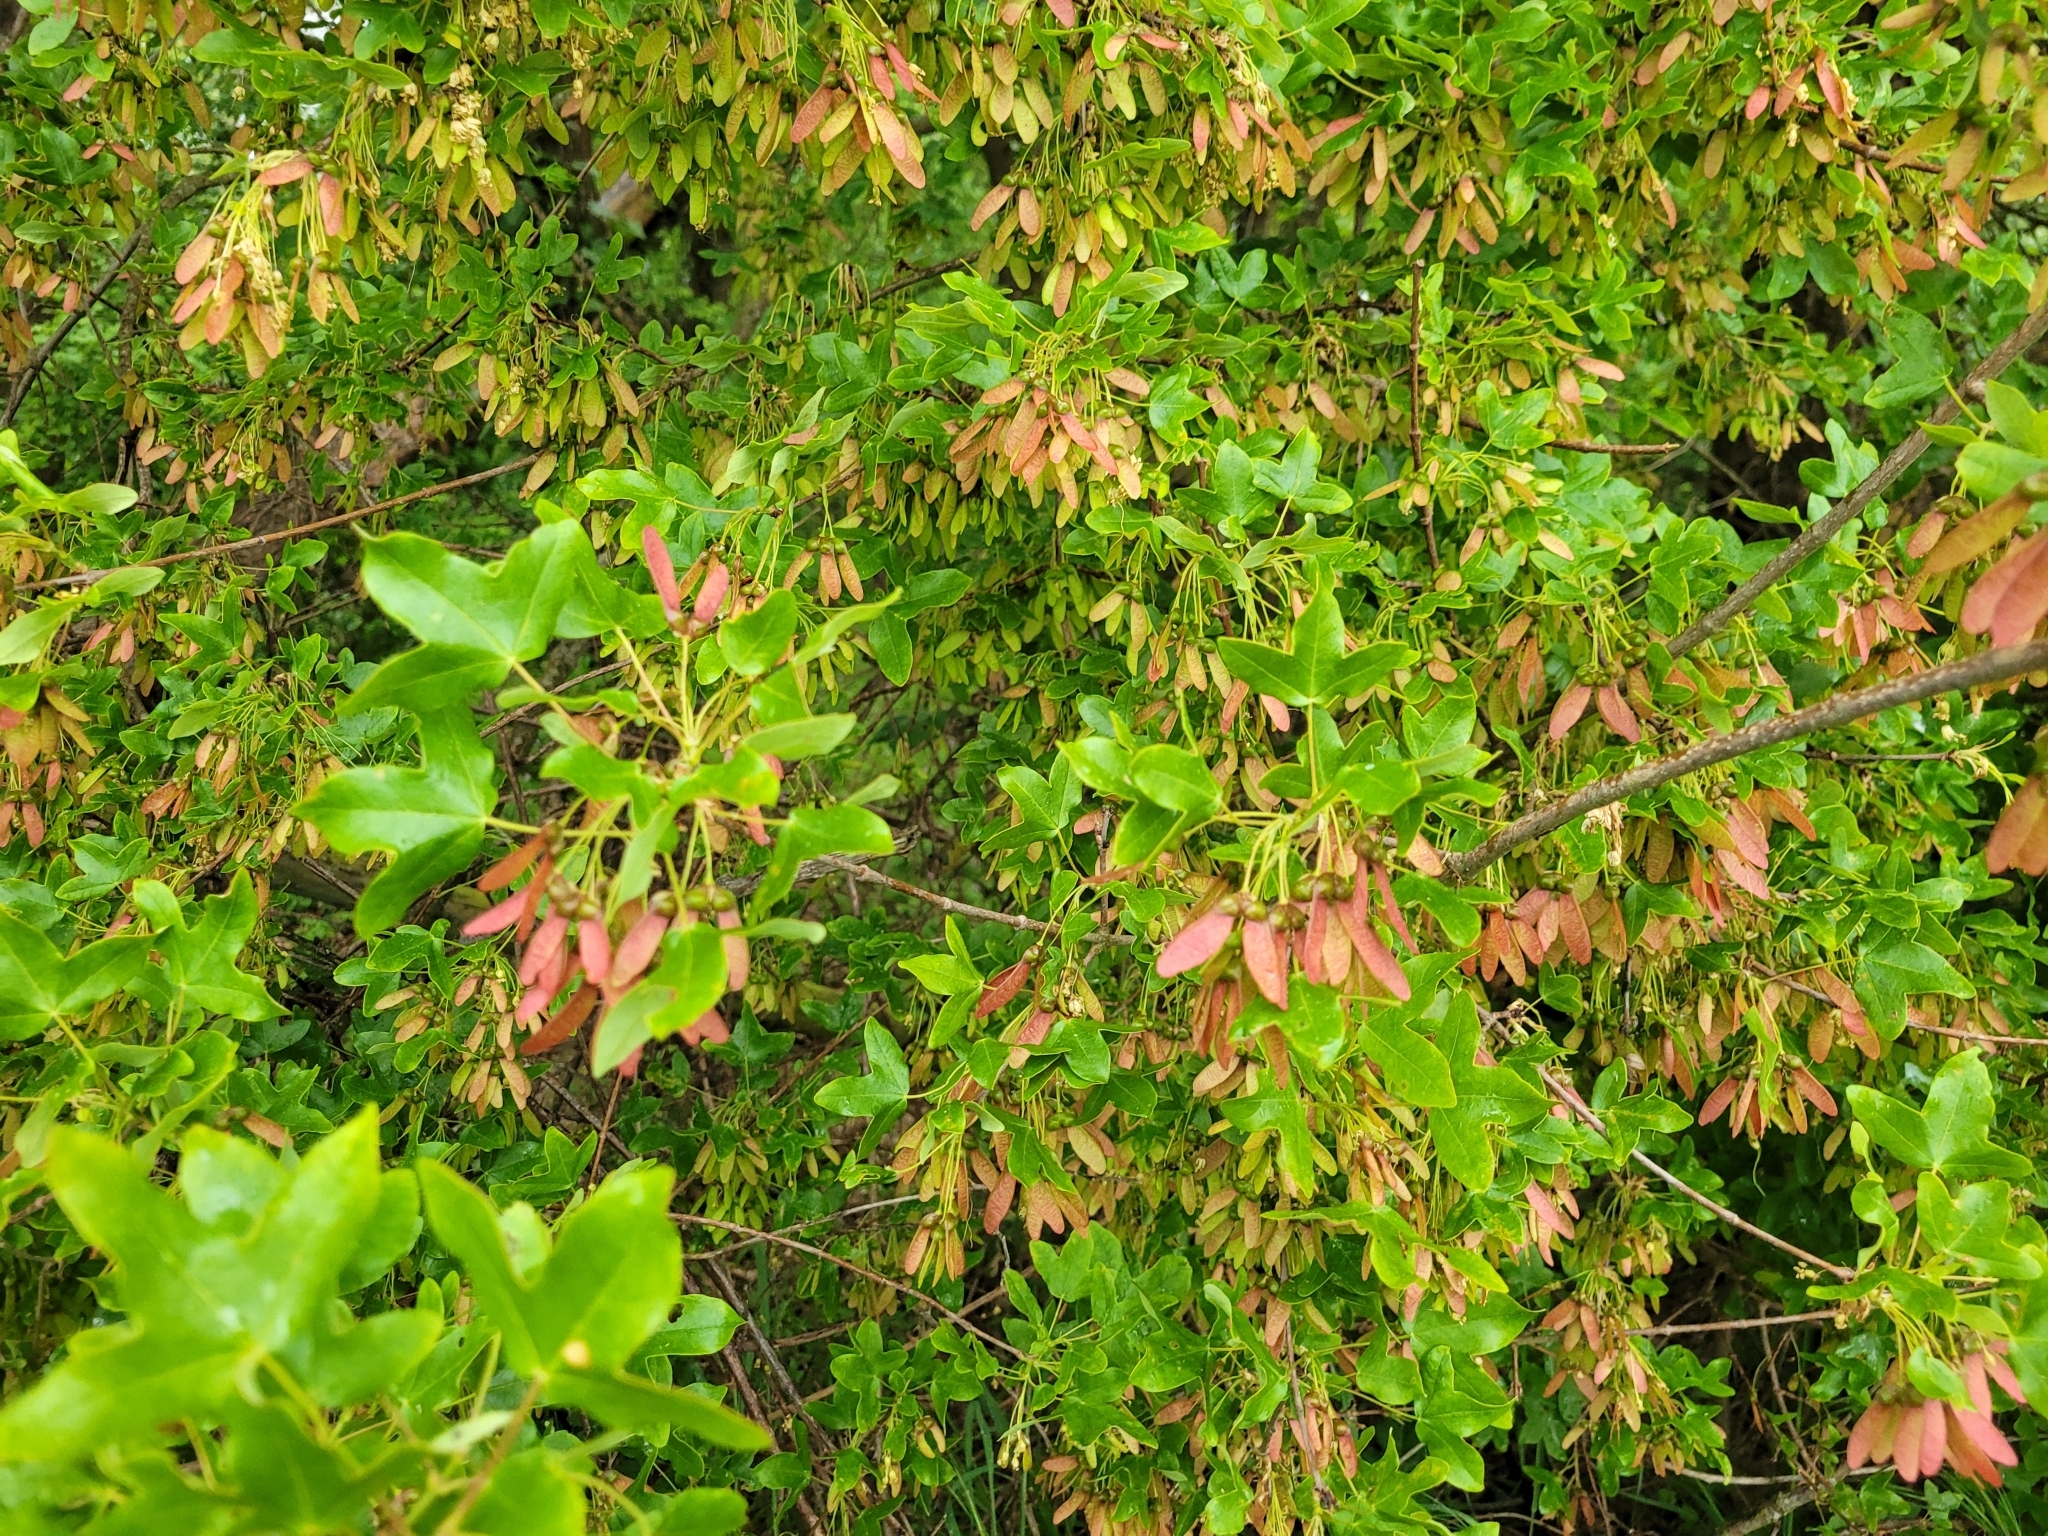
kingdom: Plantae
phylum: Tracheophyta
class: Magnoliopsida
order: Sapindales
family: Sapindaceae
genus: Acer
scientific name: Acer monspessulanum
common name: Montpellier maple
